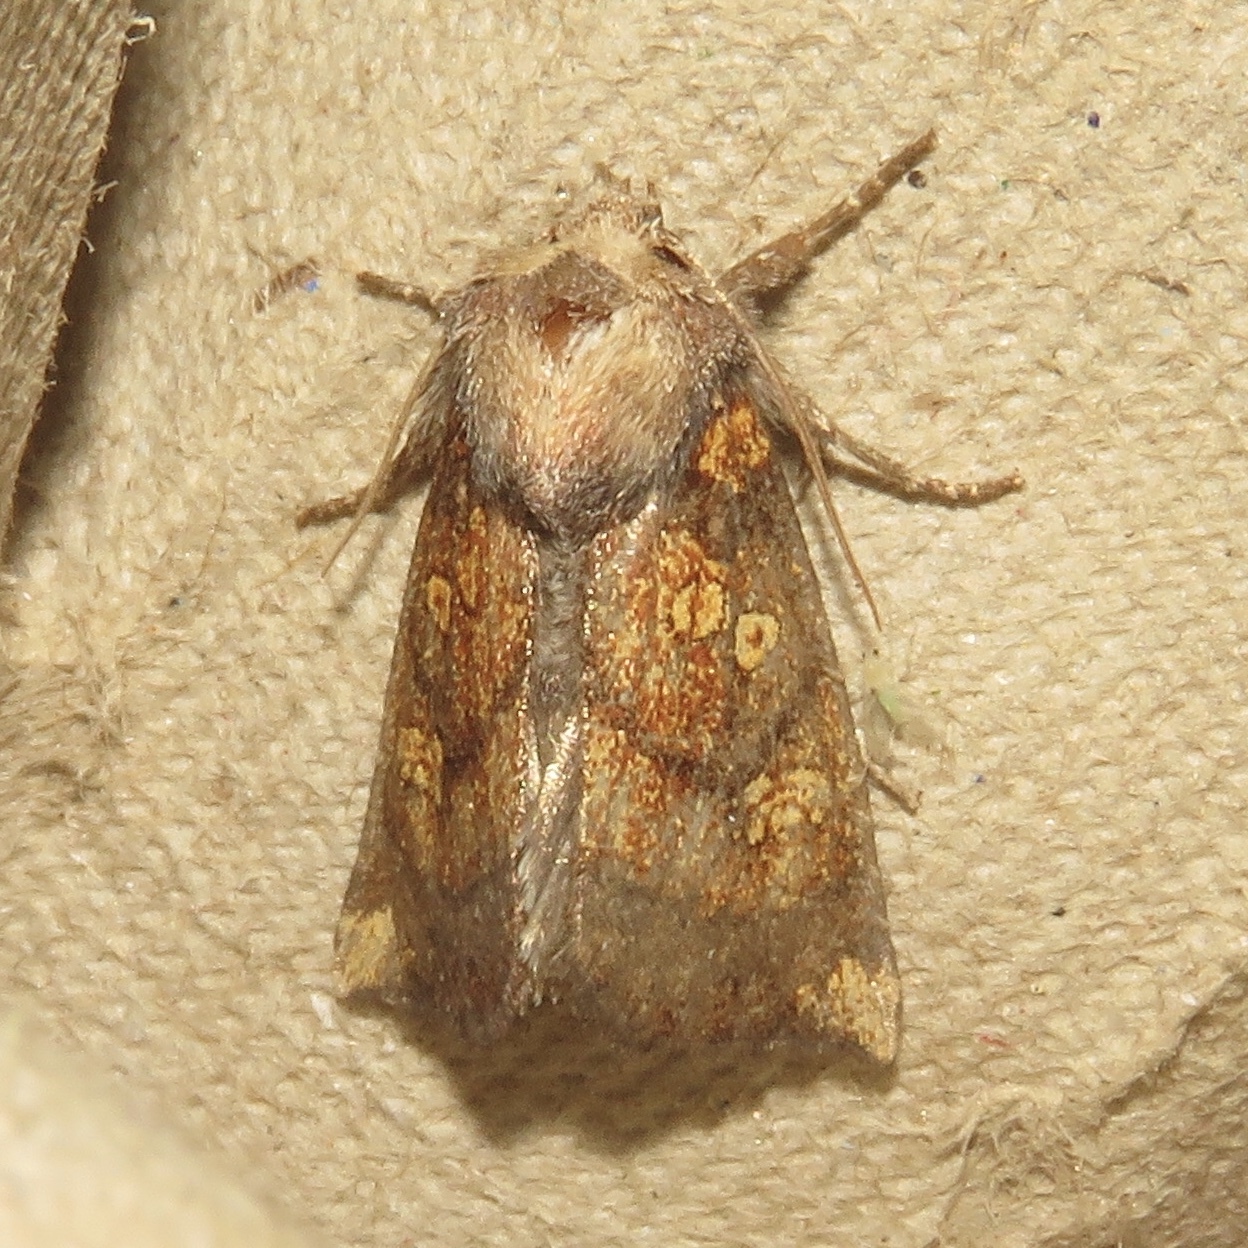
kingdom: Animalia
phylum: Arthropoda
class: Insecta
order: Lepidoptera
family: Noctuidae
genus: Papaipema
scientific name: Papaipema impecuniosa
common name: Aster borer moth
